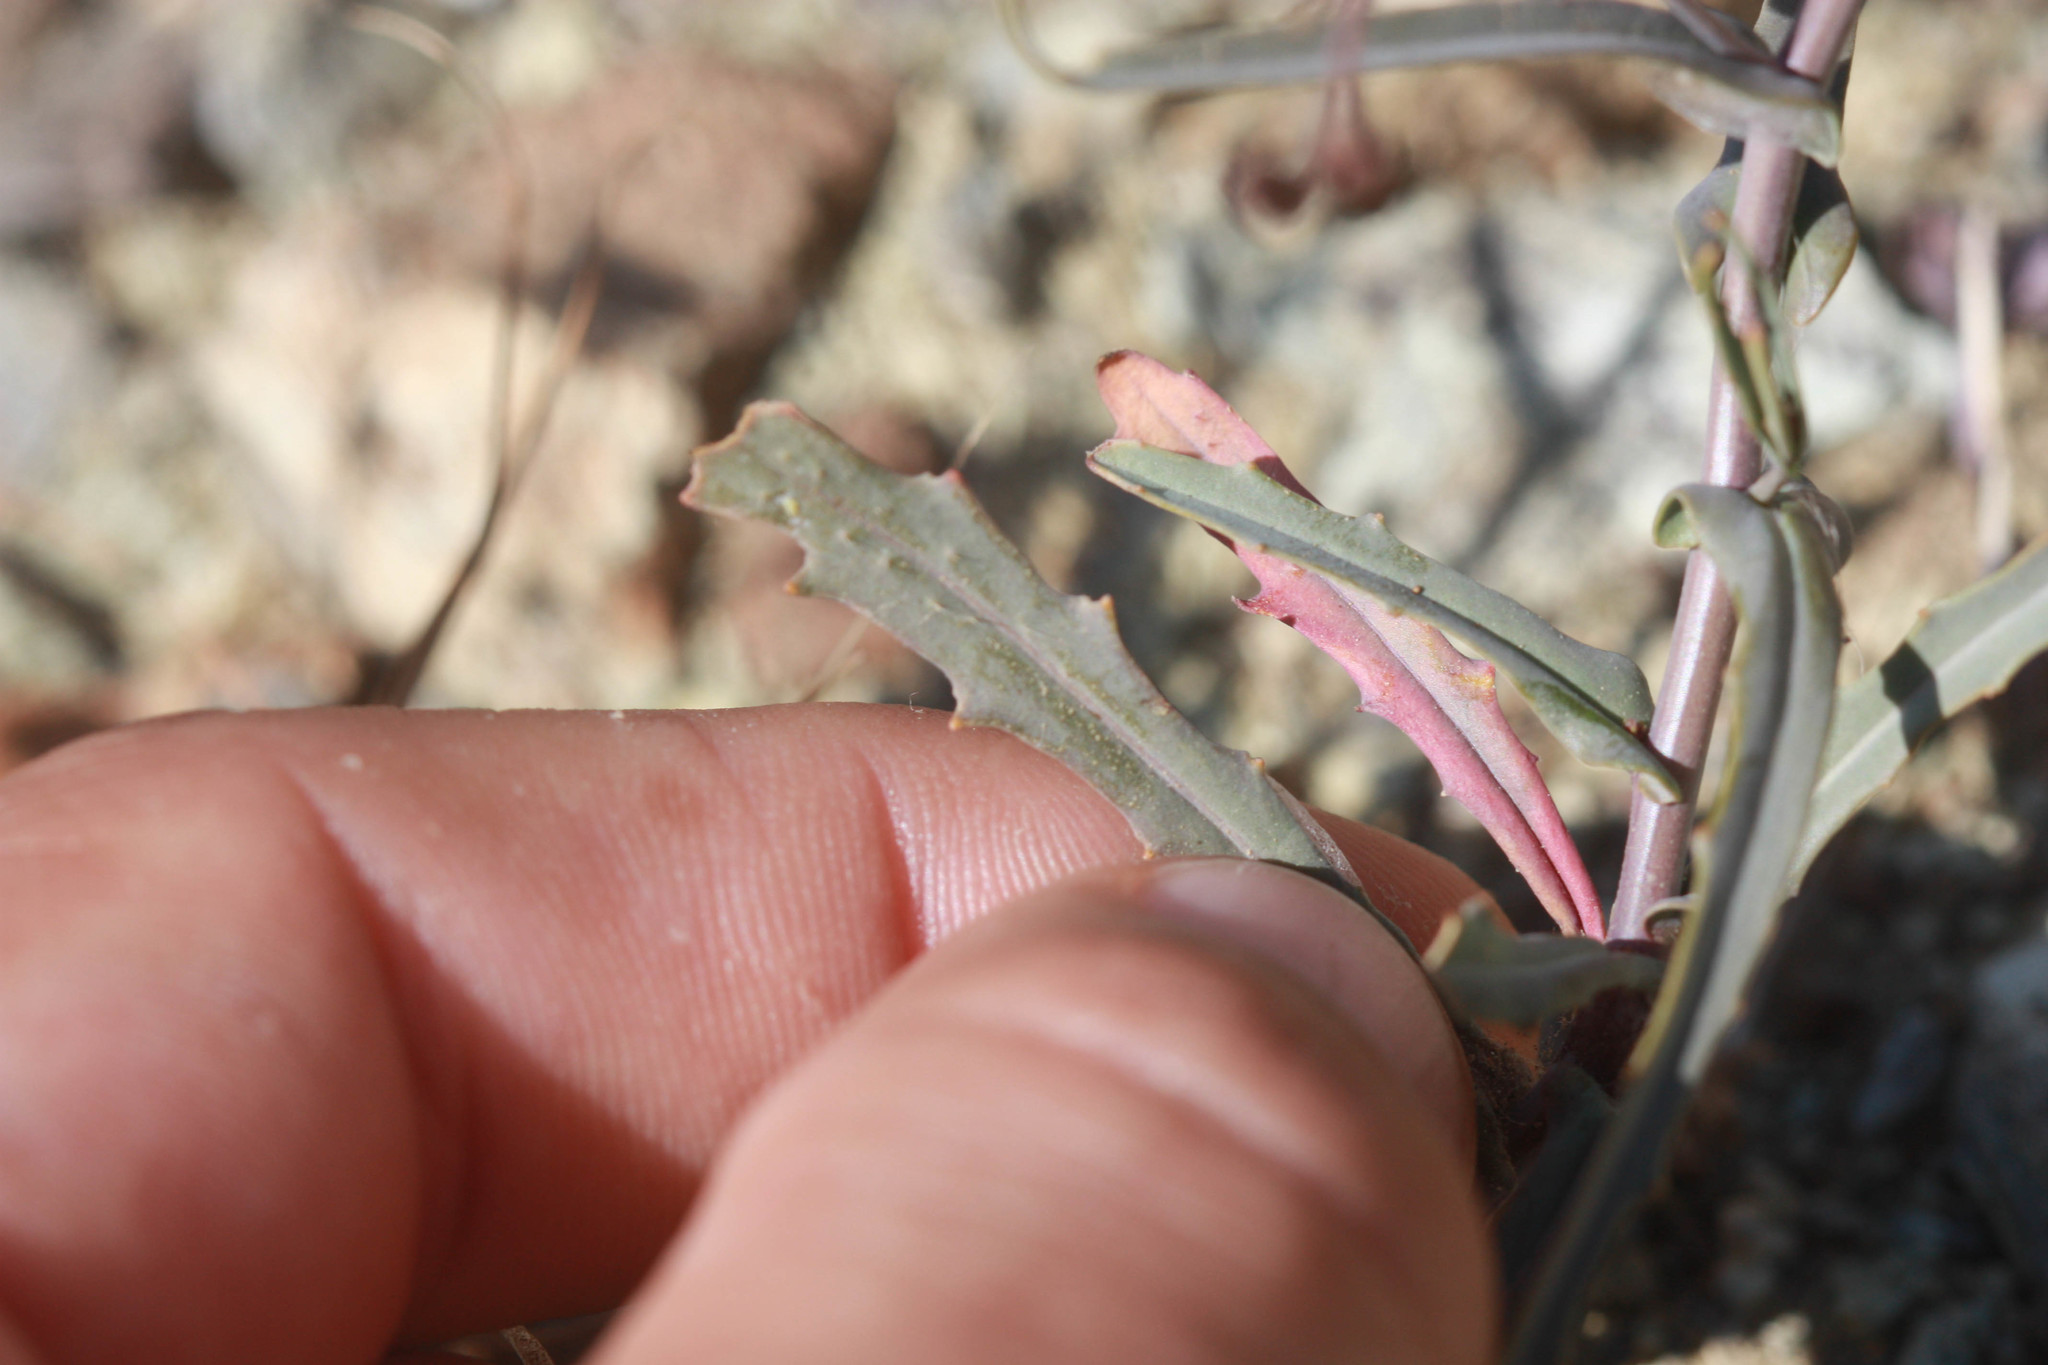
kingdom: Plantae
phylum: Tracheophyta
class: Magnoliopsida
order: Brassicales
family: Brassicaceae
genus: Streptanthus
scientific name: Streptanthus glandulosus
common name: Jewel-flower
